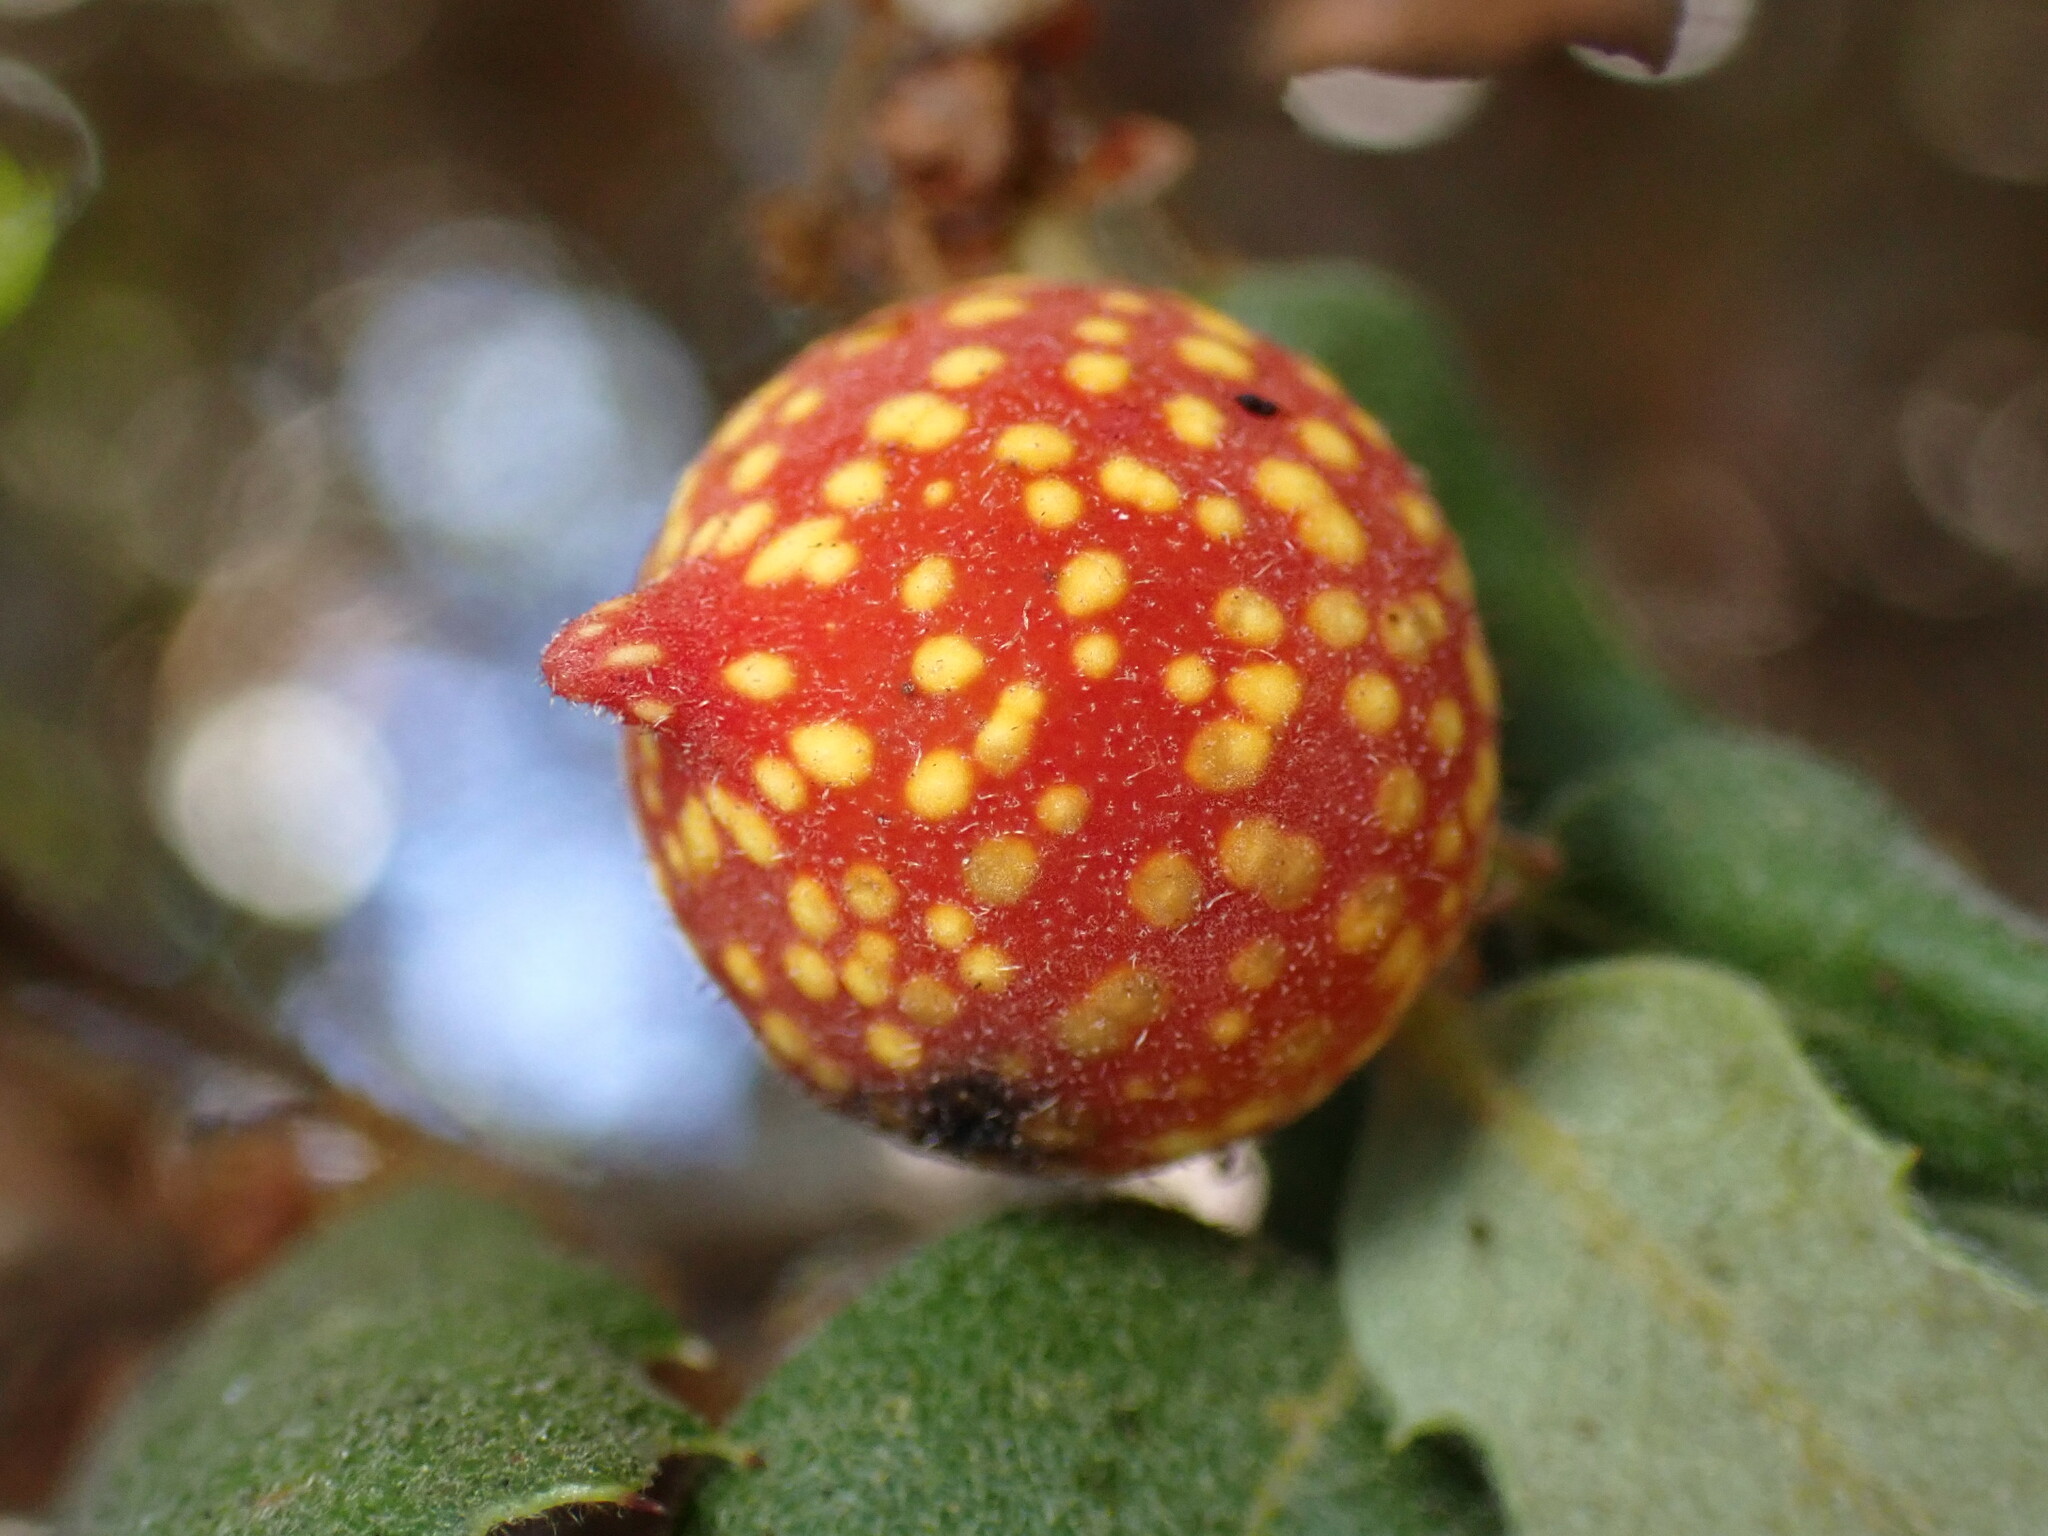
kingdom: Animalia
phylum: Arthropoda
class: Insecta
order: Hymenoptera
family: Cynipidae
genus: Burnettweldia
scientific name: Burnettweldia
